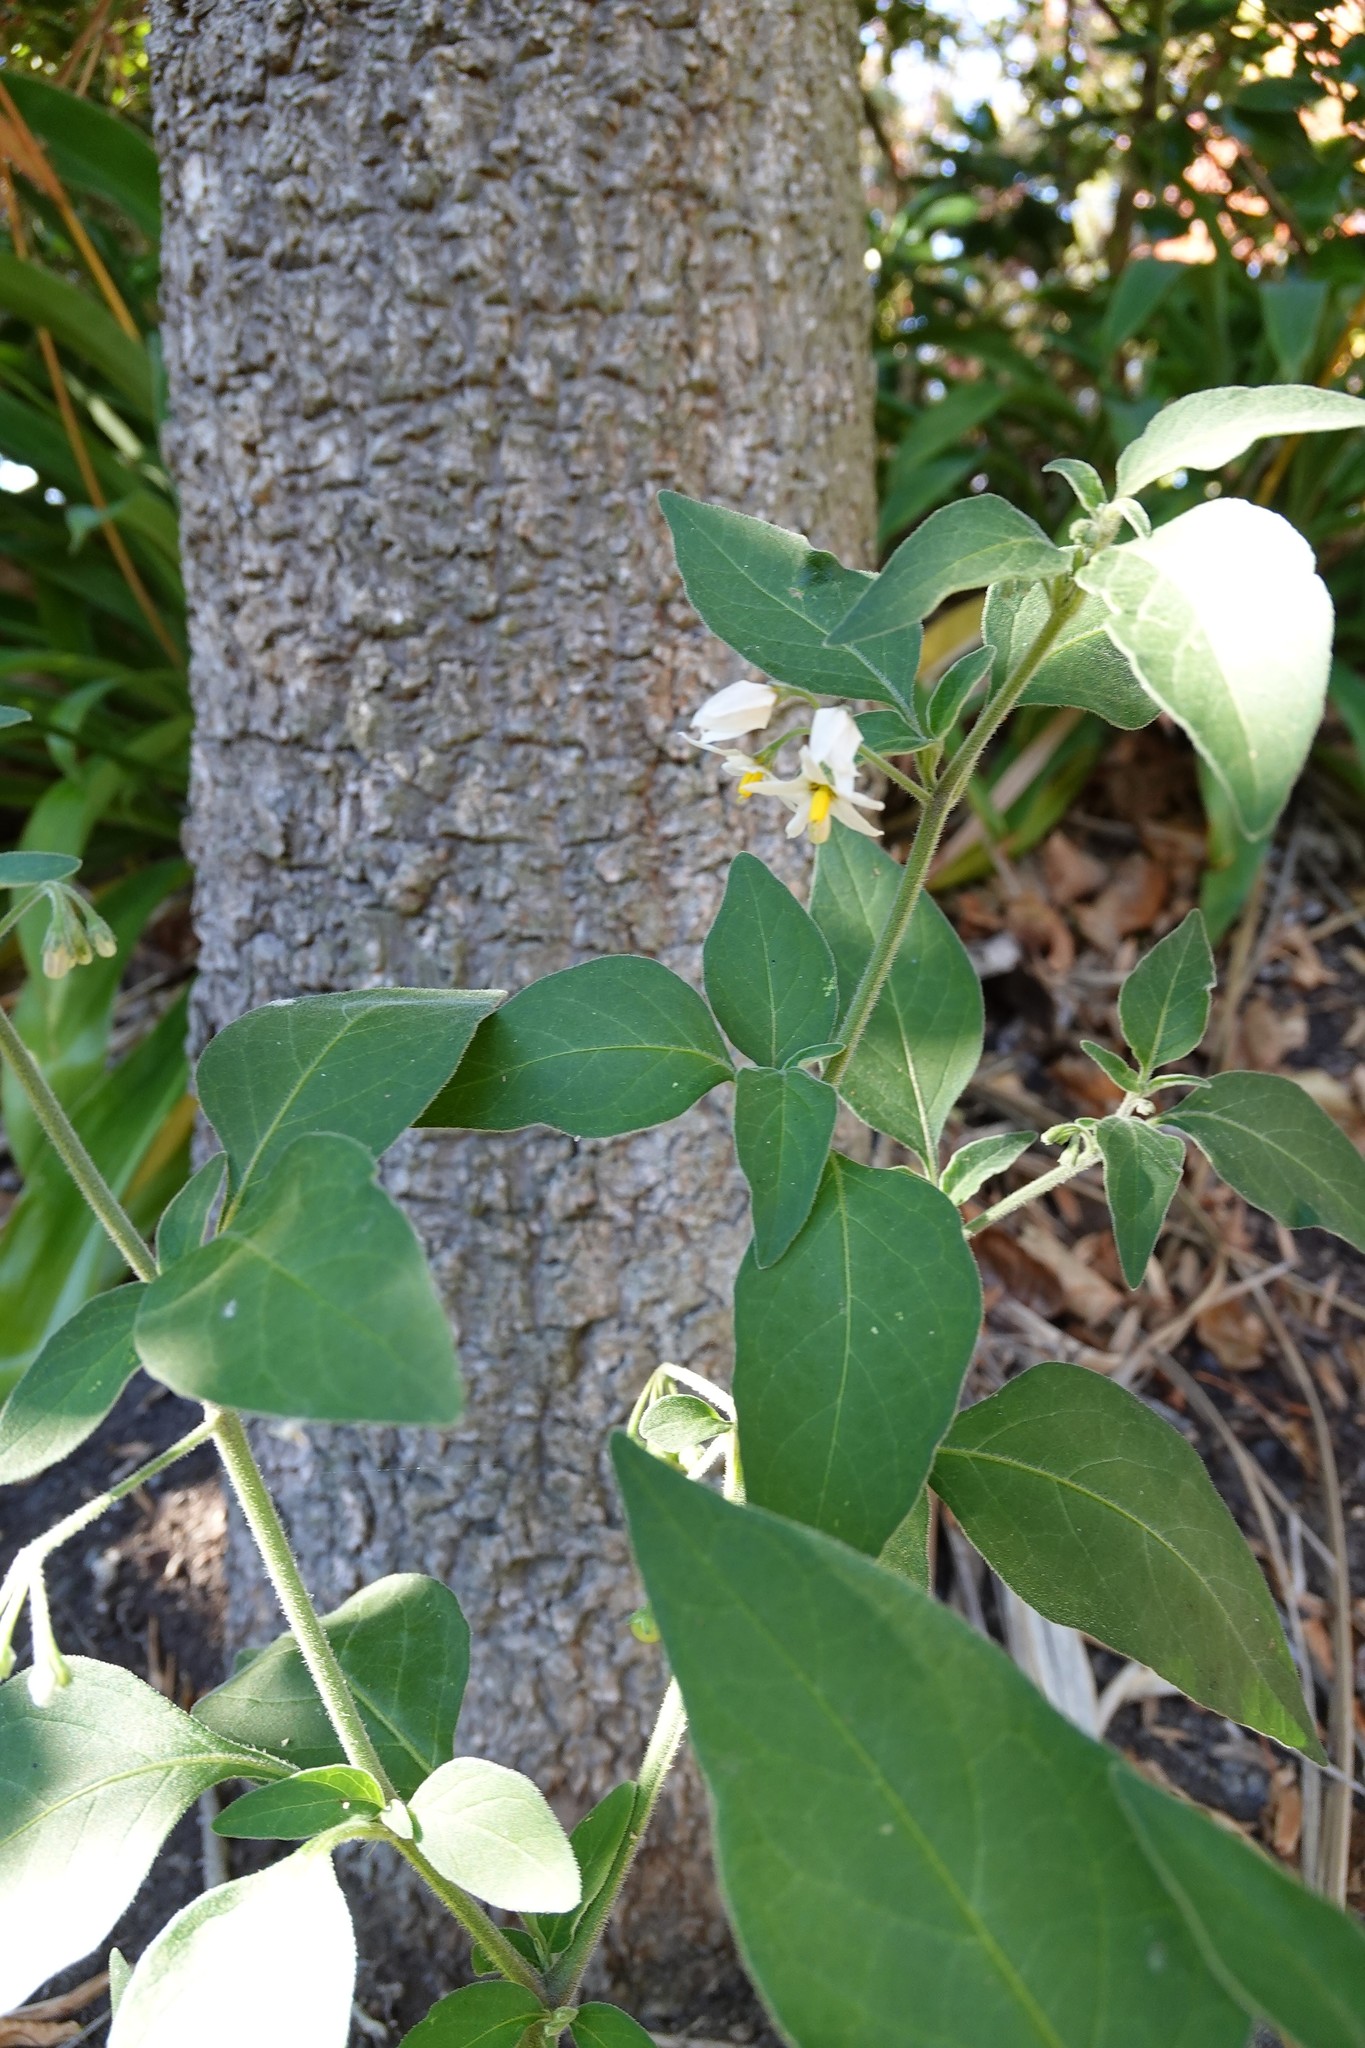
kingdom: Plantae
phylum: Tracheophyta
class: Magnoliopsida
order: Solanales
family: Solanaceae
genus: Solanum
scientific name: Solanum chenopodioides
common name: Tall nightshade
